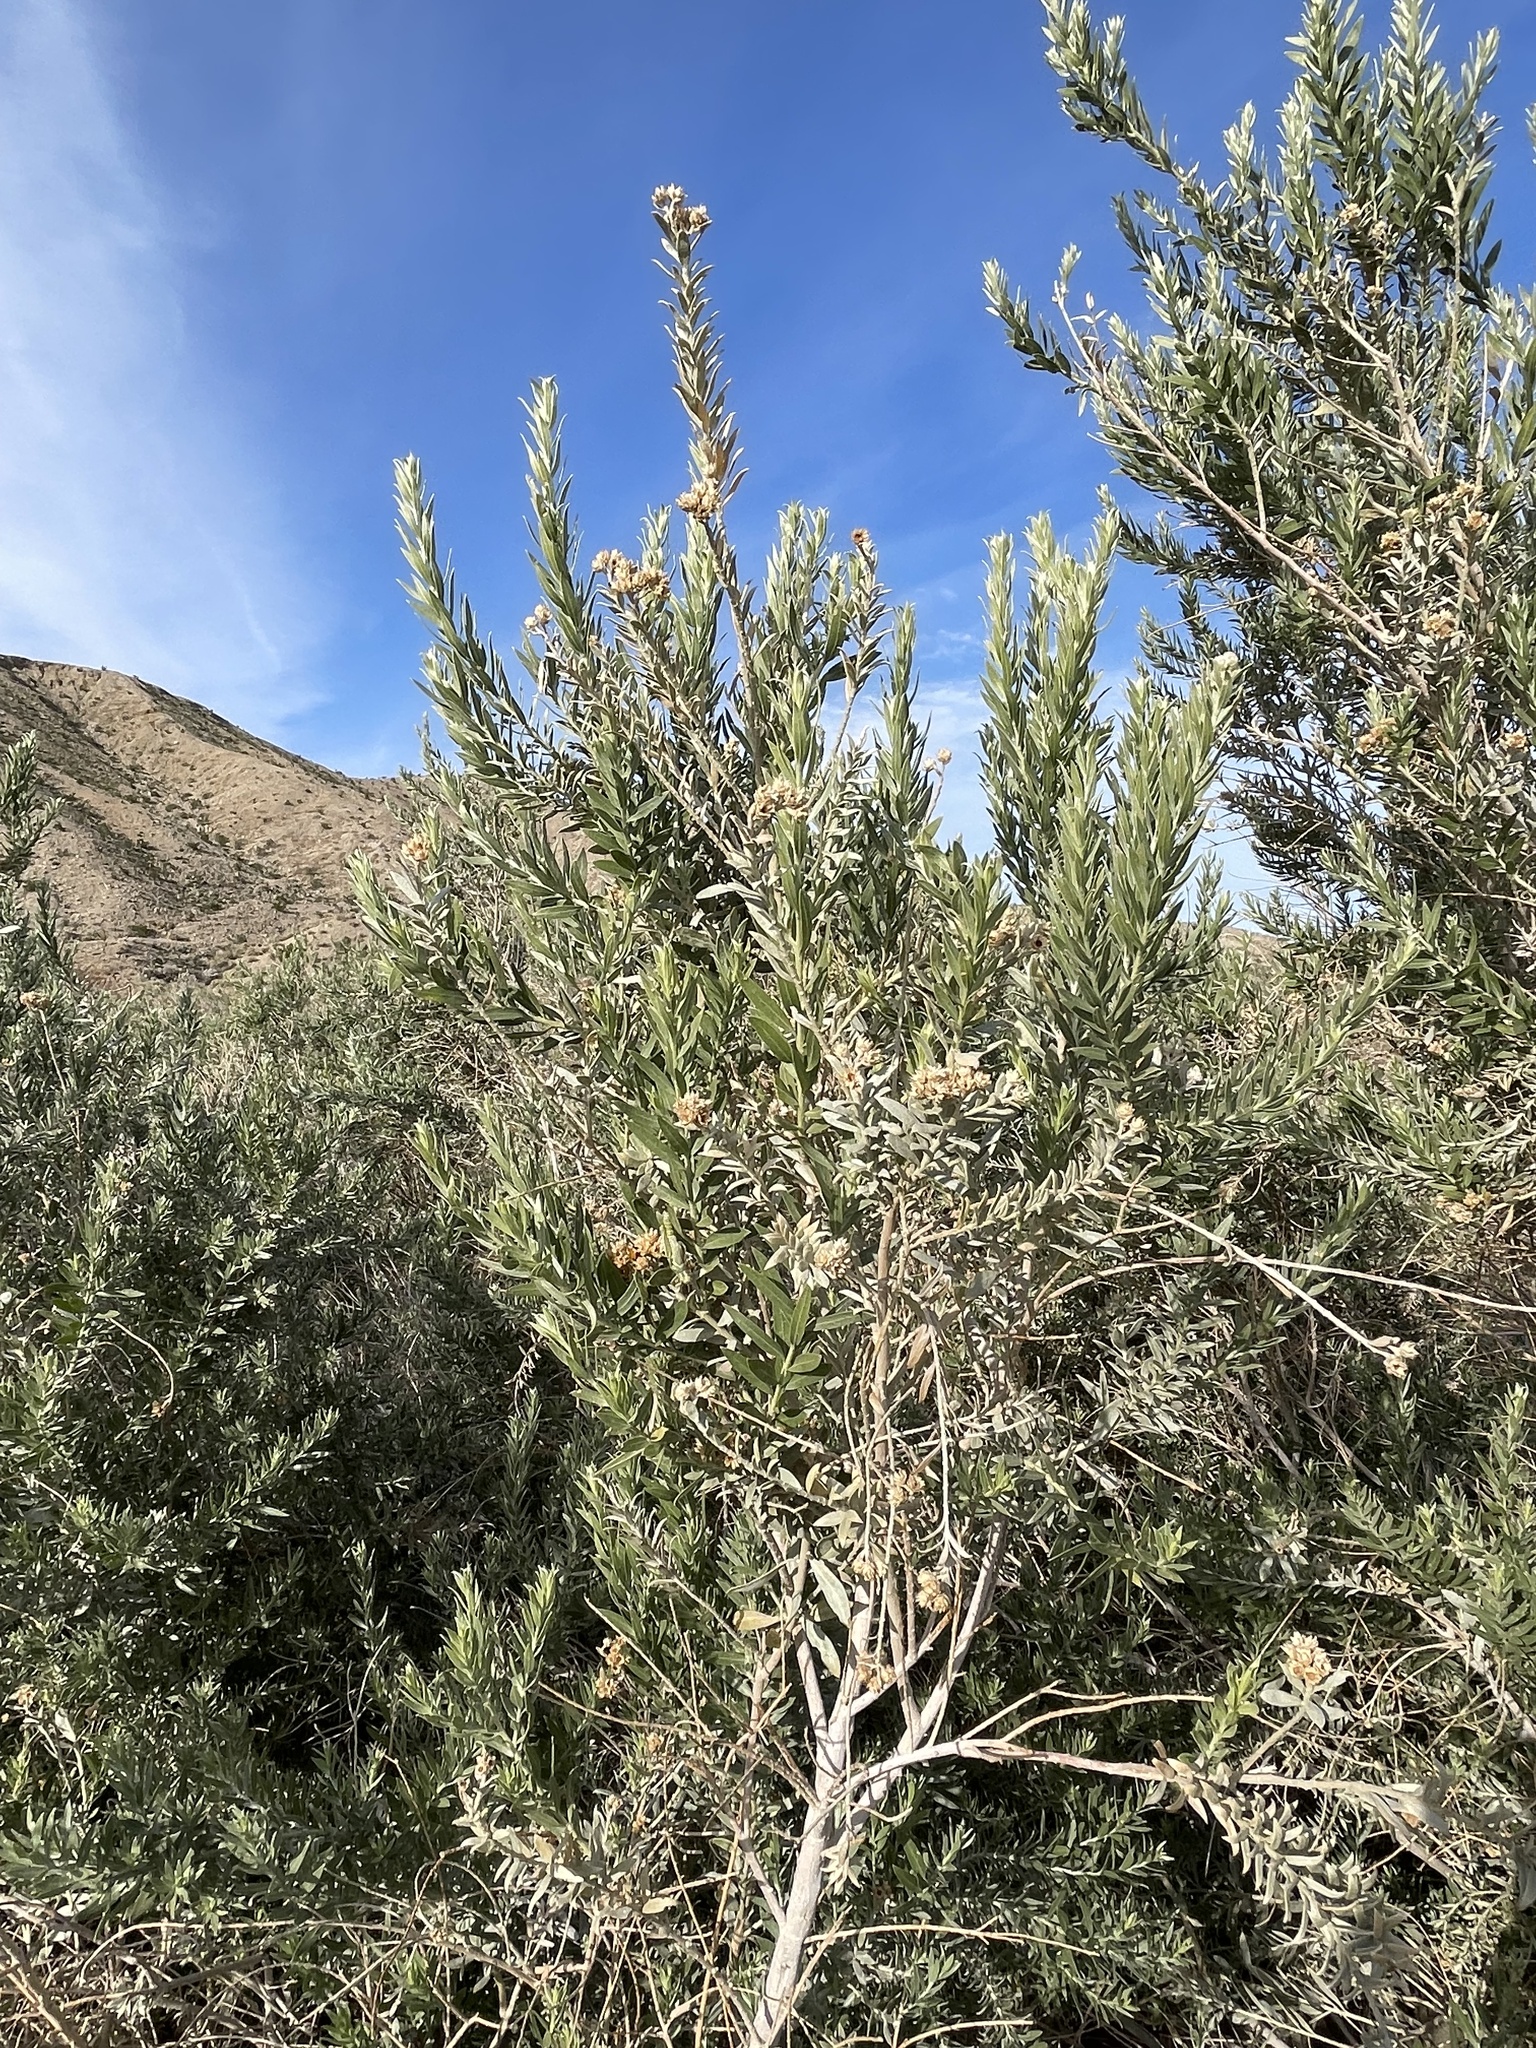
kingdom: Animalia
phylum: Arthropoda
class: Insecta
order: Orthoptera
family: Acrididae
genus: Melanoplus
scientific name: Melanoplus herbaceus
